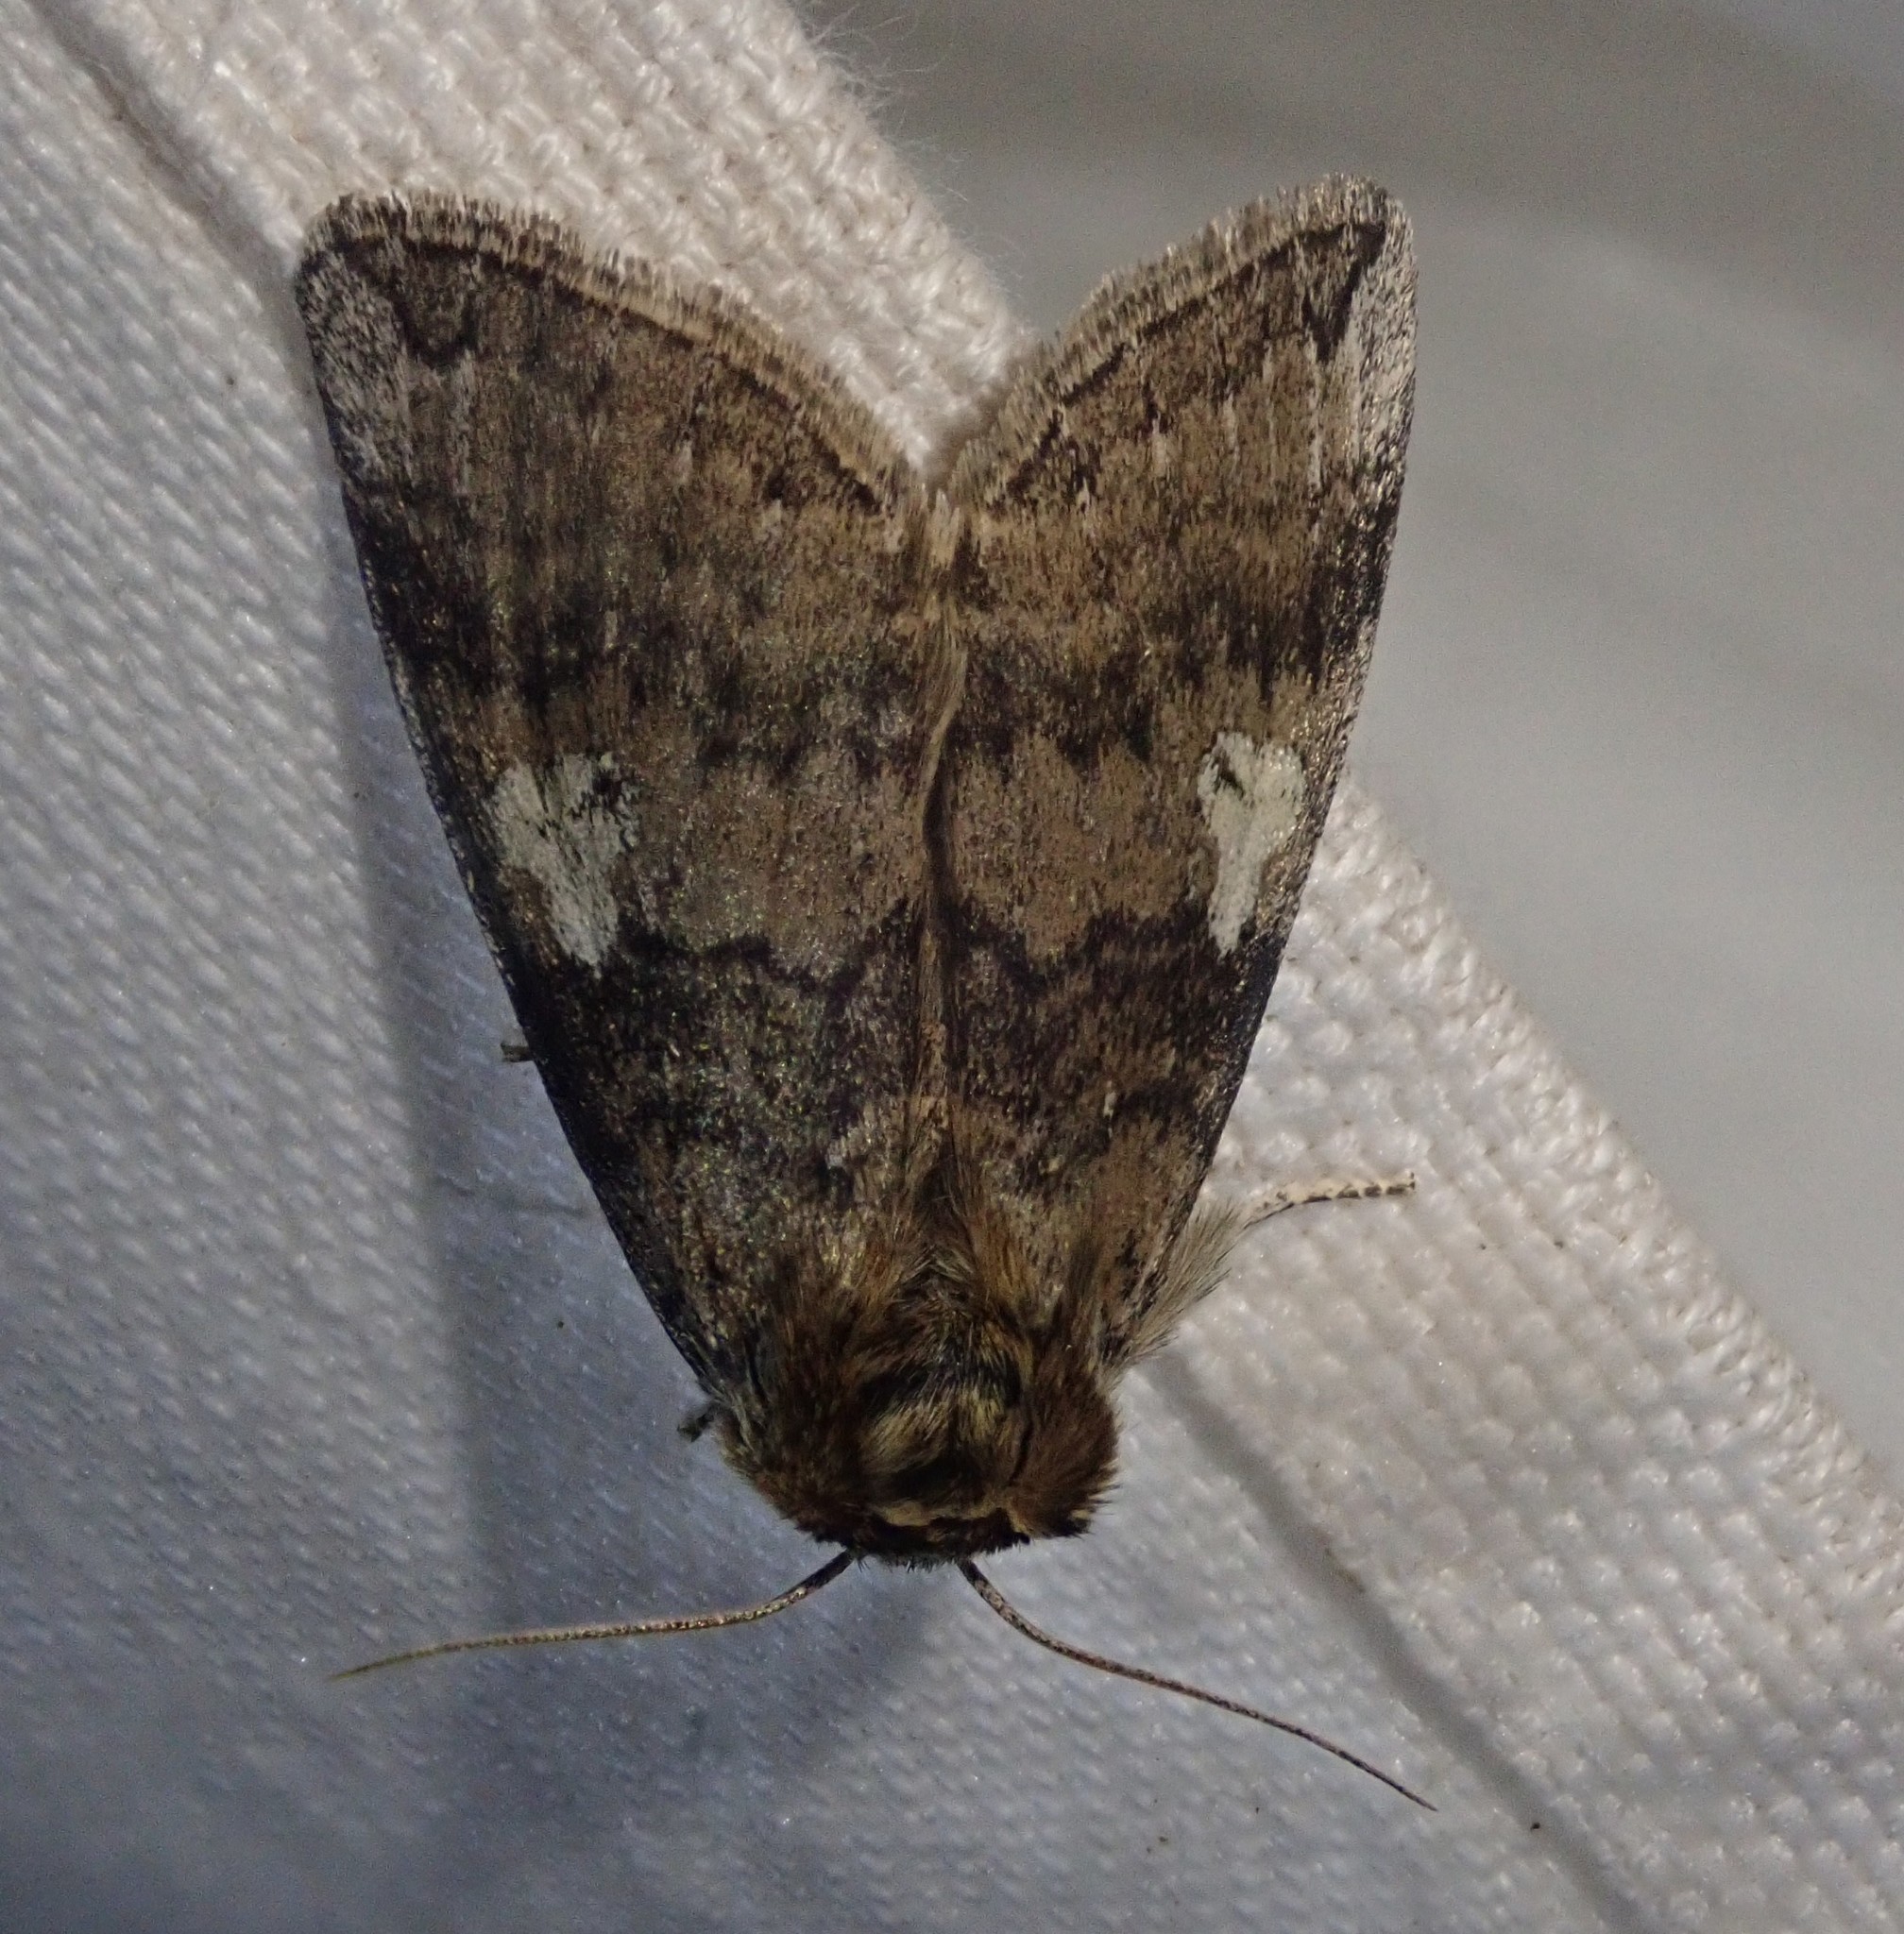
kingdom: Animalia
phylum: Arthropoda
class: Insecta
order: Lepidoptera
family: Drepanidae
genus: Tethea
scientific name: Tethea or
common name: Poplar lutestring
